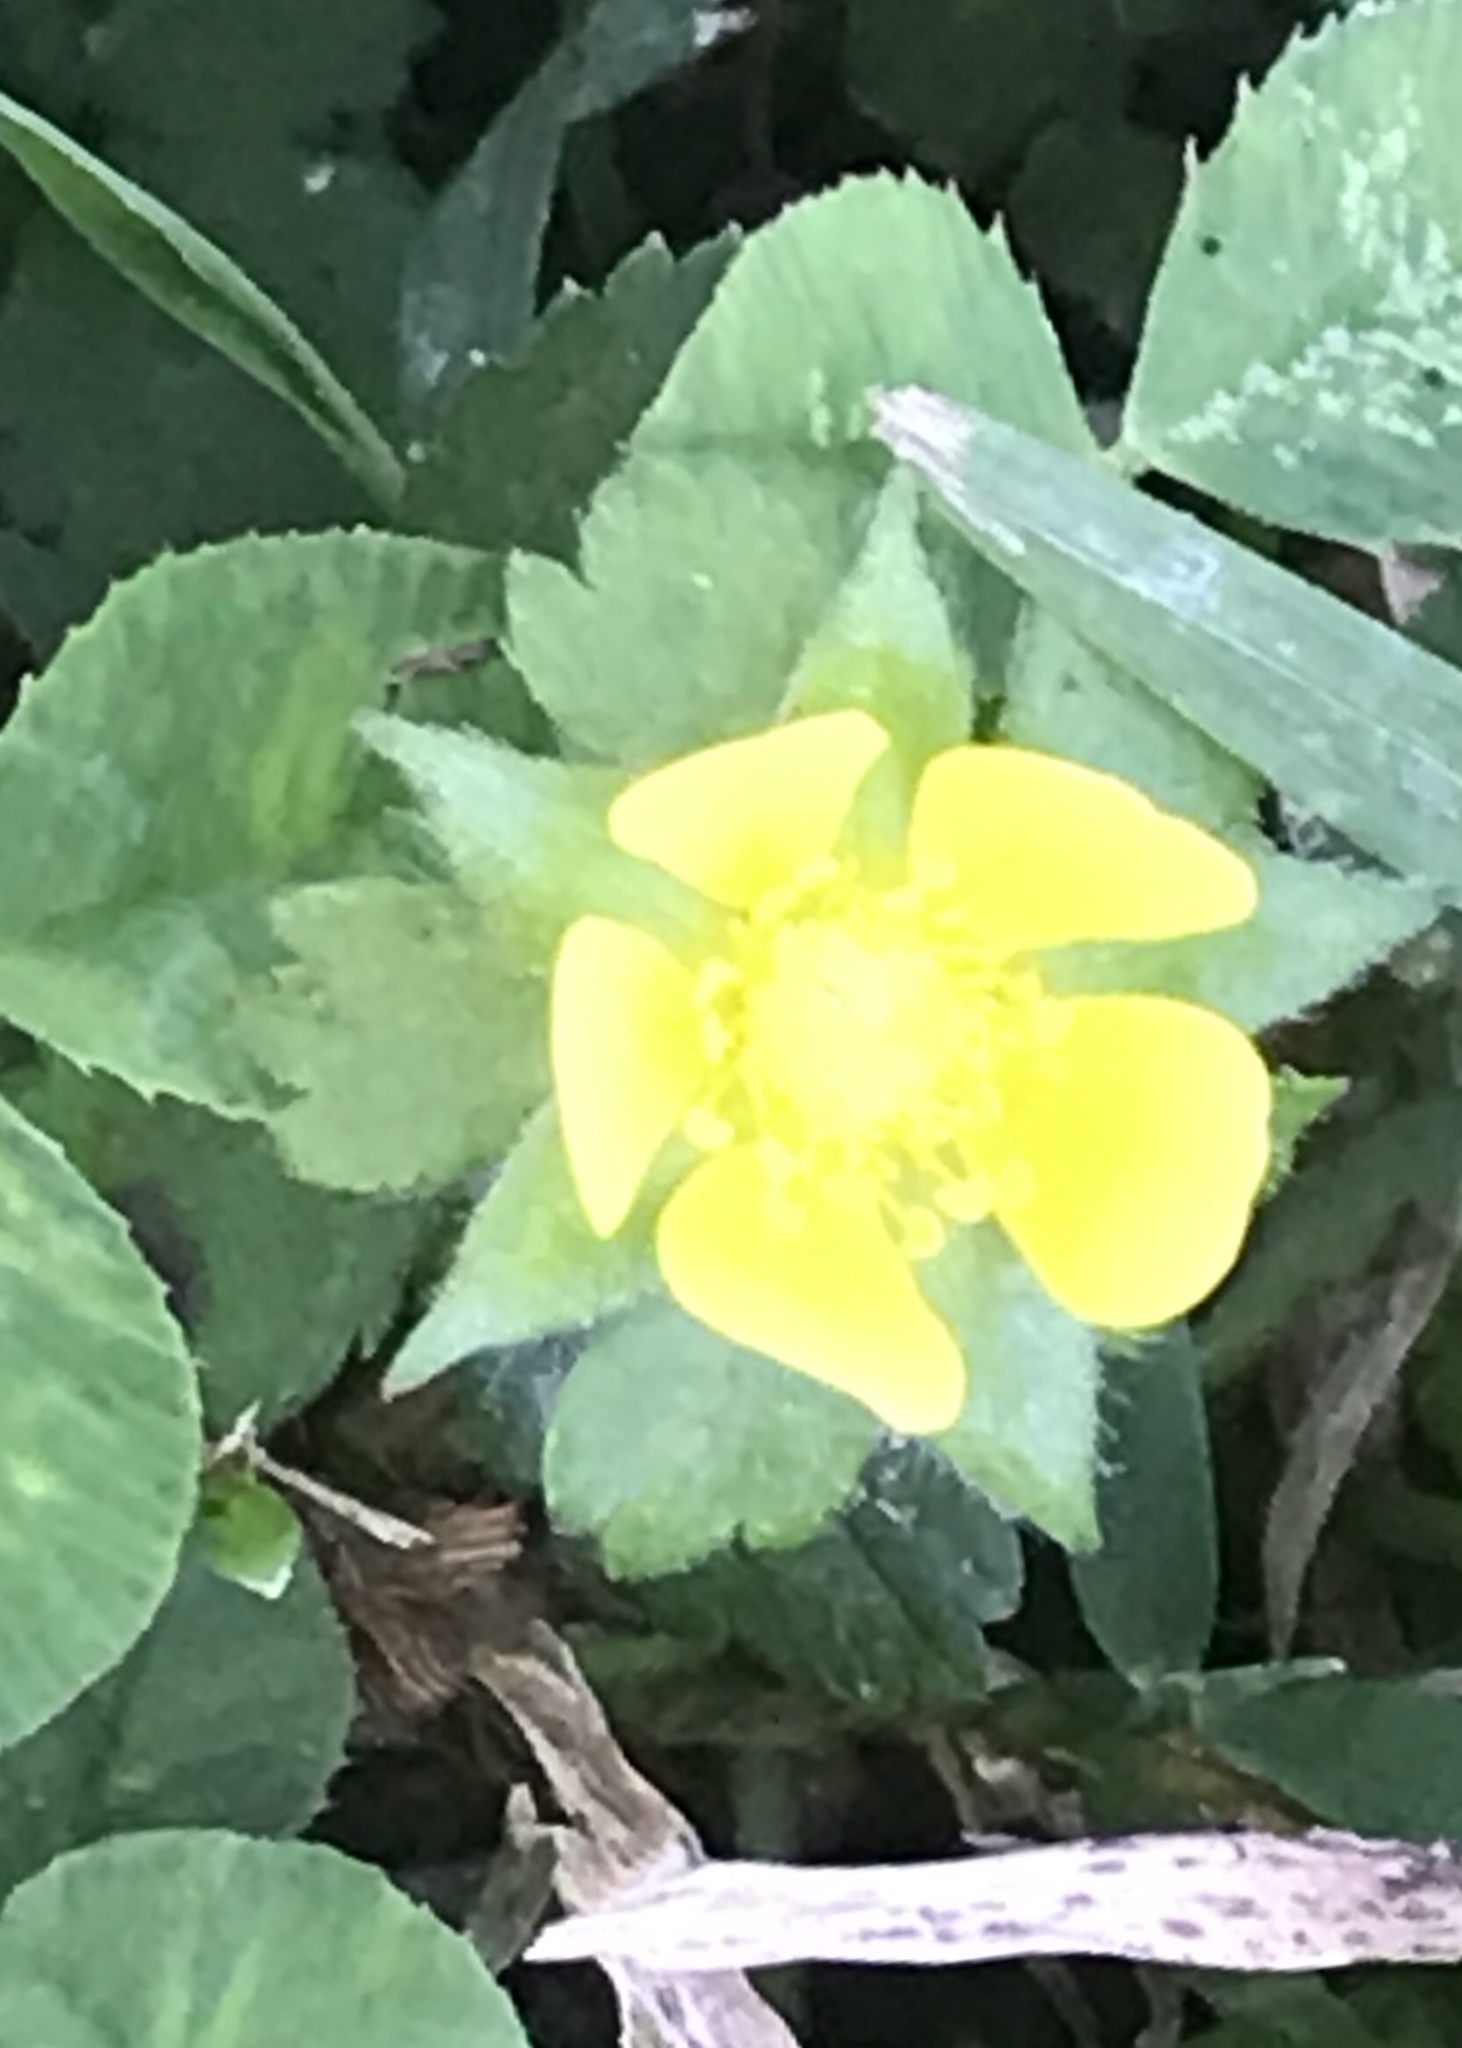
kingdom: Plantae
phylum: Tracheophyta
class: Magnoliopsida
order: Rosales
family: Rosaceae
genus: Potentilla
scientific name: Potentilla indica
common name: Yellow-flowered strawberry
